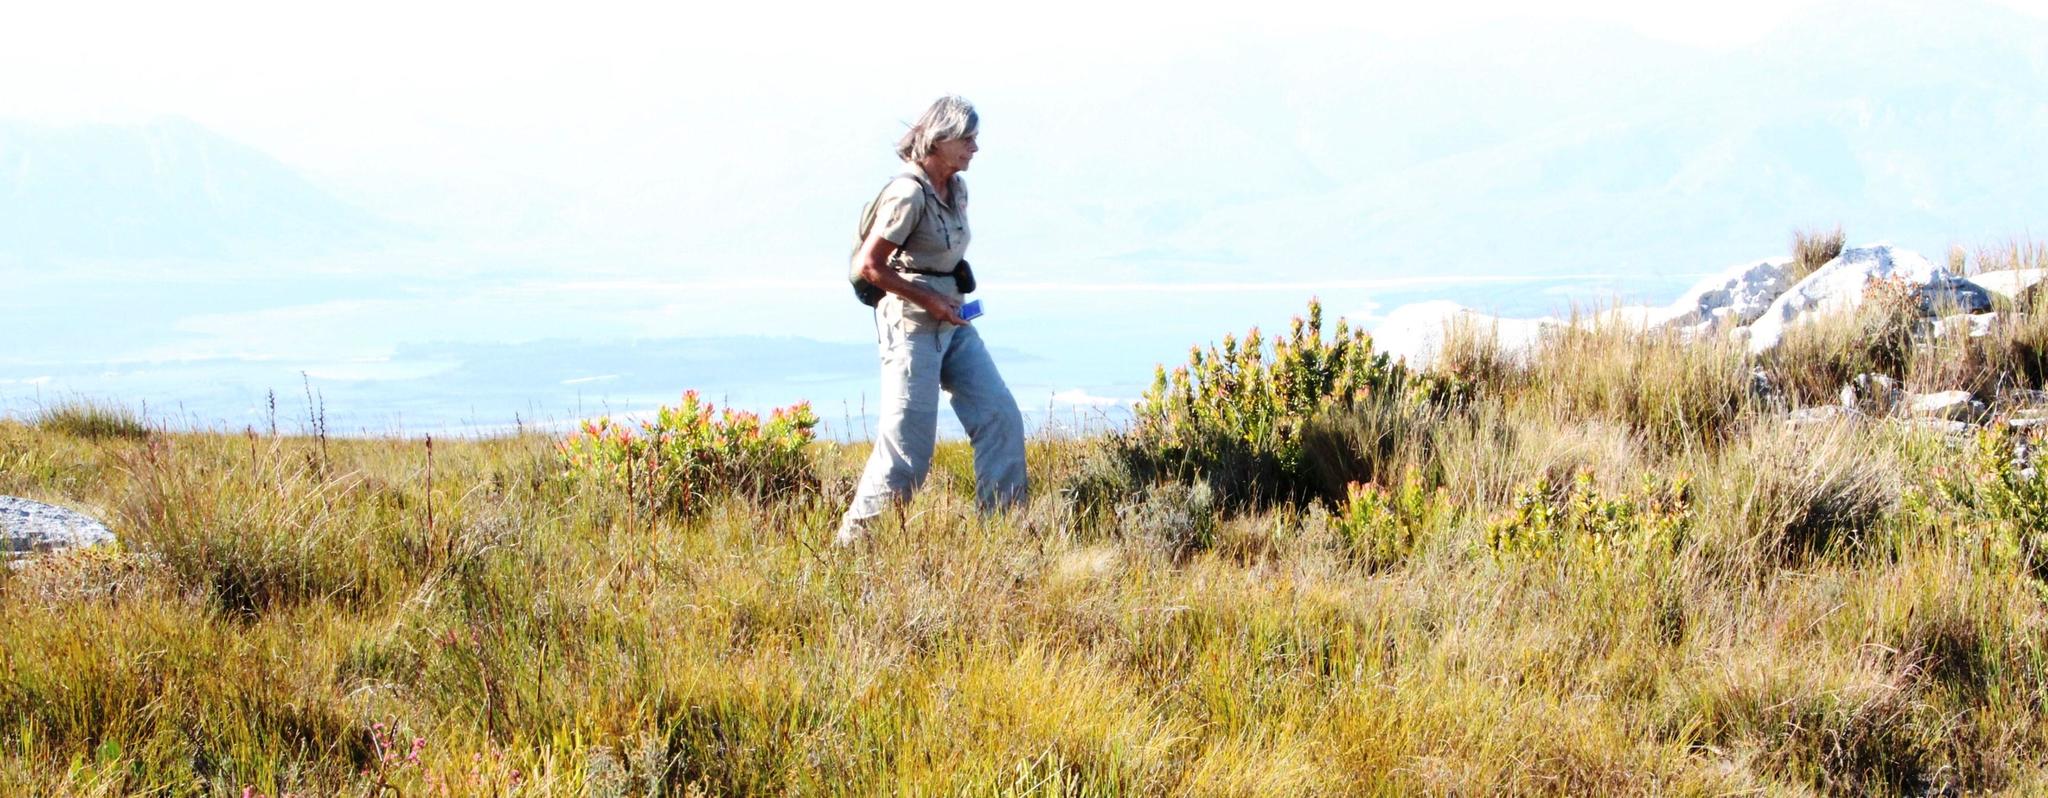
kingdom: Plantae
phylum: Tracheophyta
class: Magnoliopsida
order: Proteales
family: Proteaceae
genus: Mimetes
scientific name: Mimetes cucullatus
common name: Common pagoda
